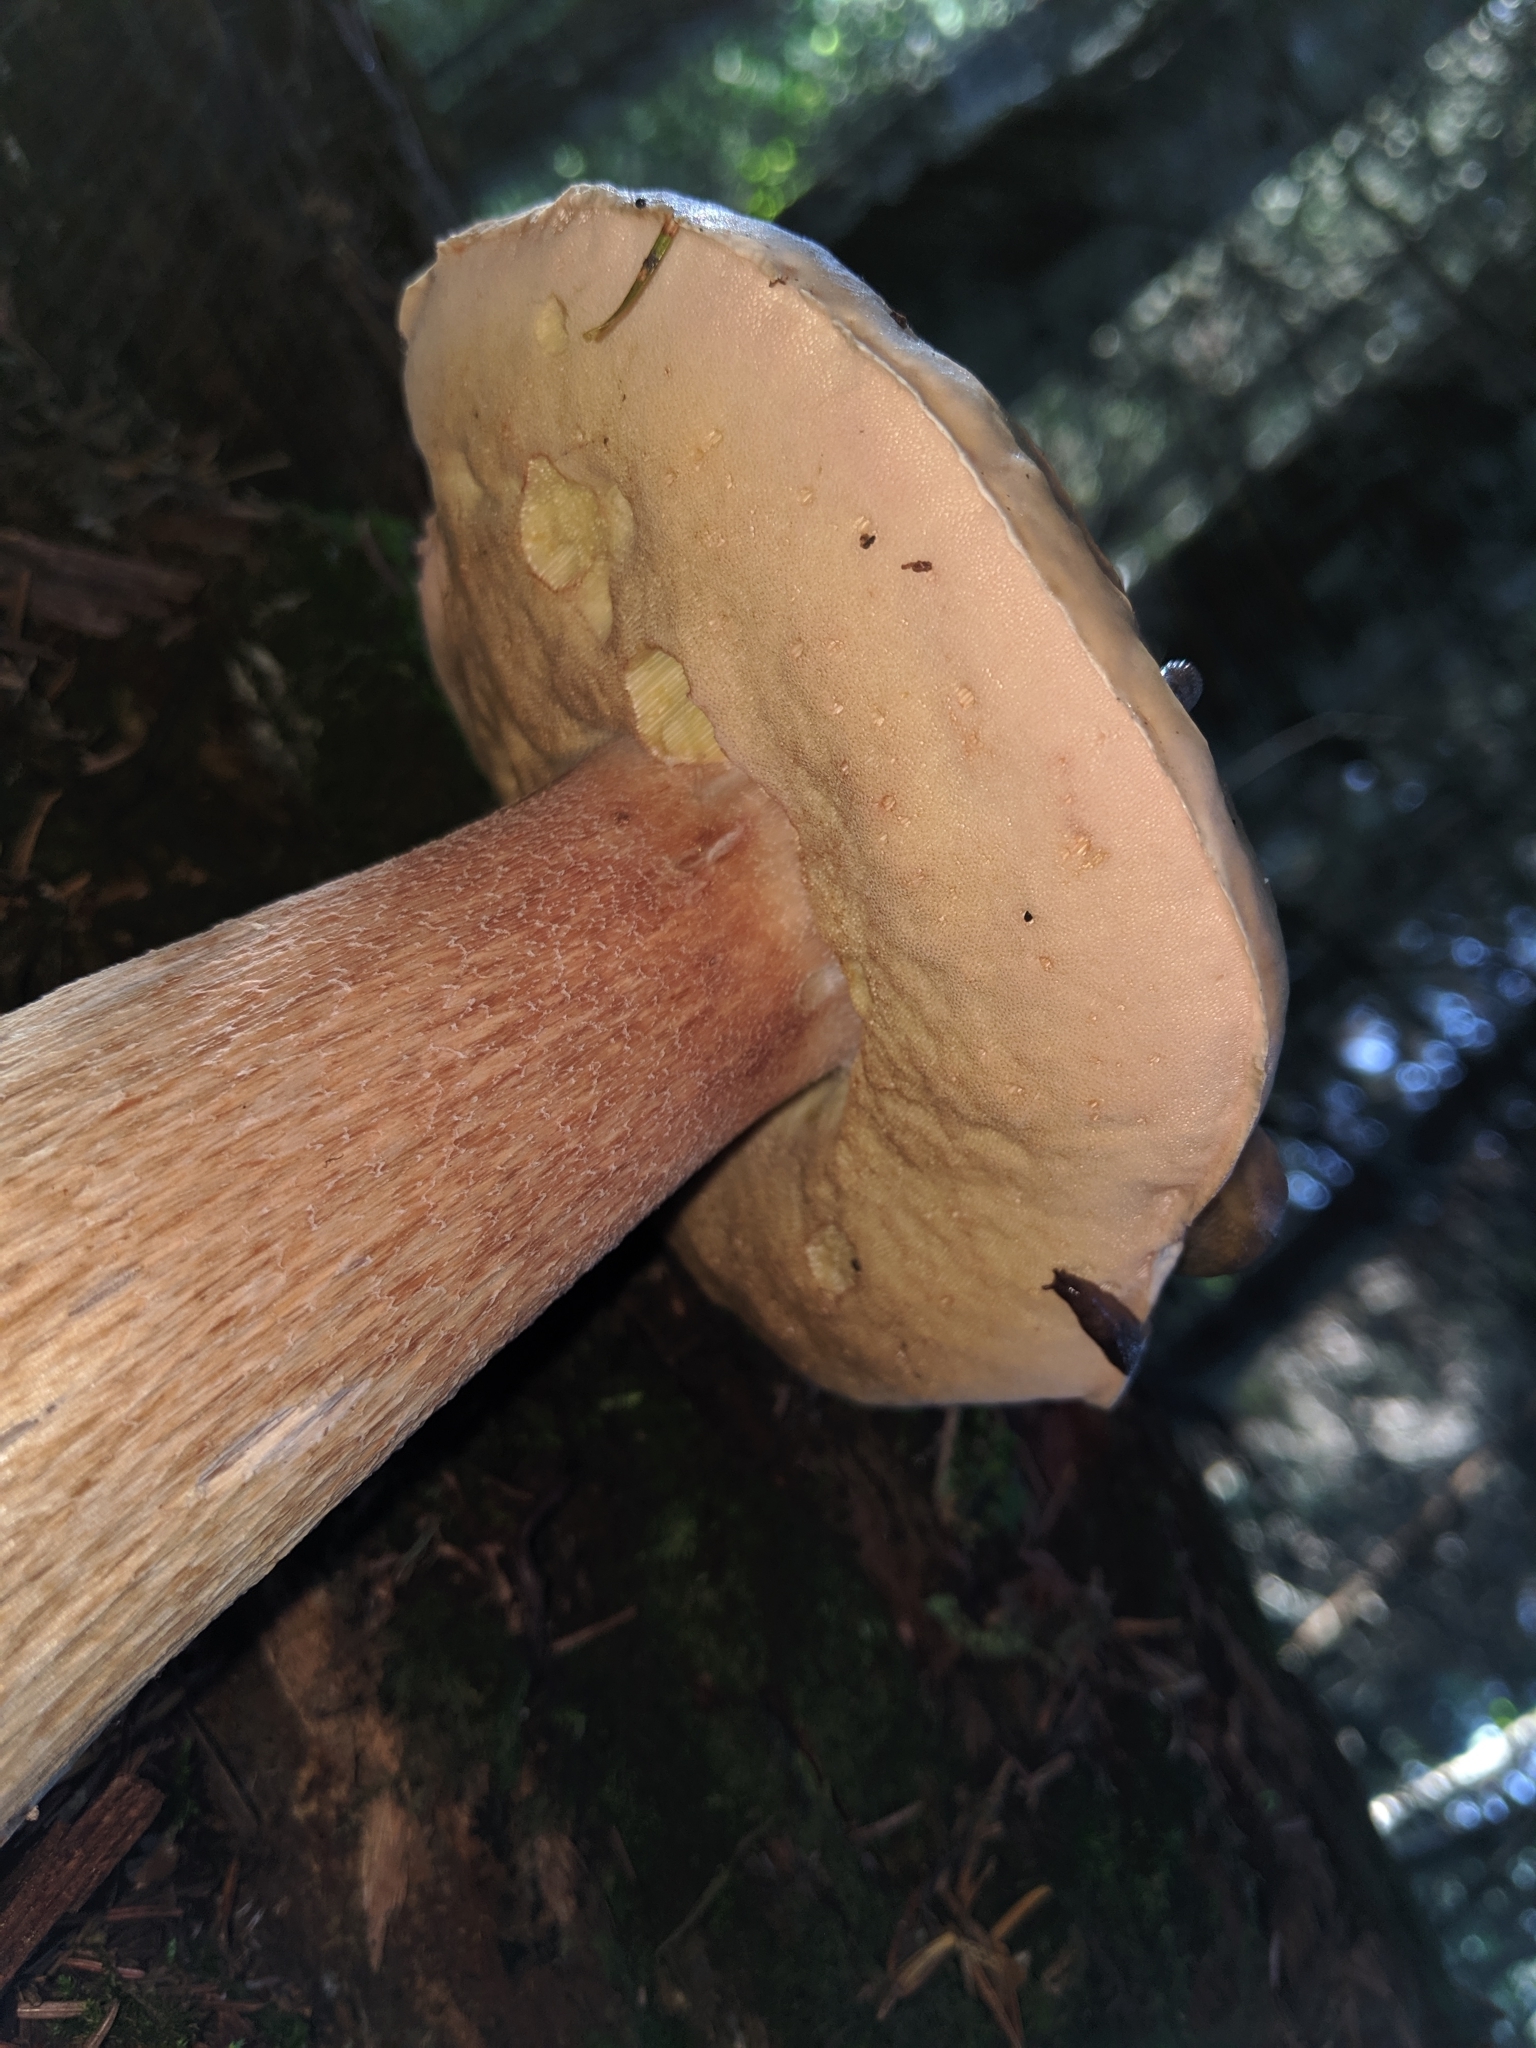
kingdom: Fungi
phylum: Basidiomycota
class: Agaricomycetes
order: Boletales
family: Boletaceae
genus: Boletus
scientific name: Boletus edulis
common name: Cep
